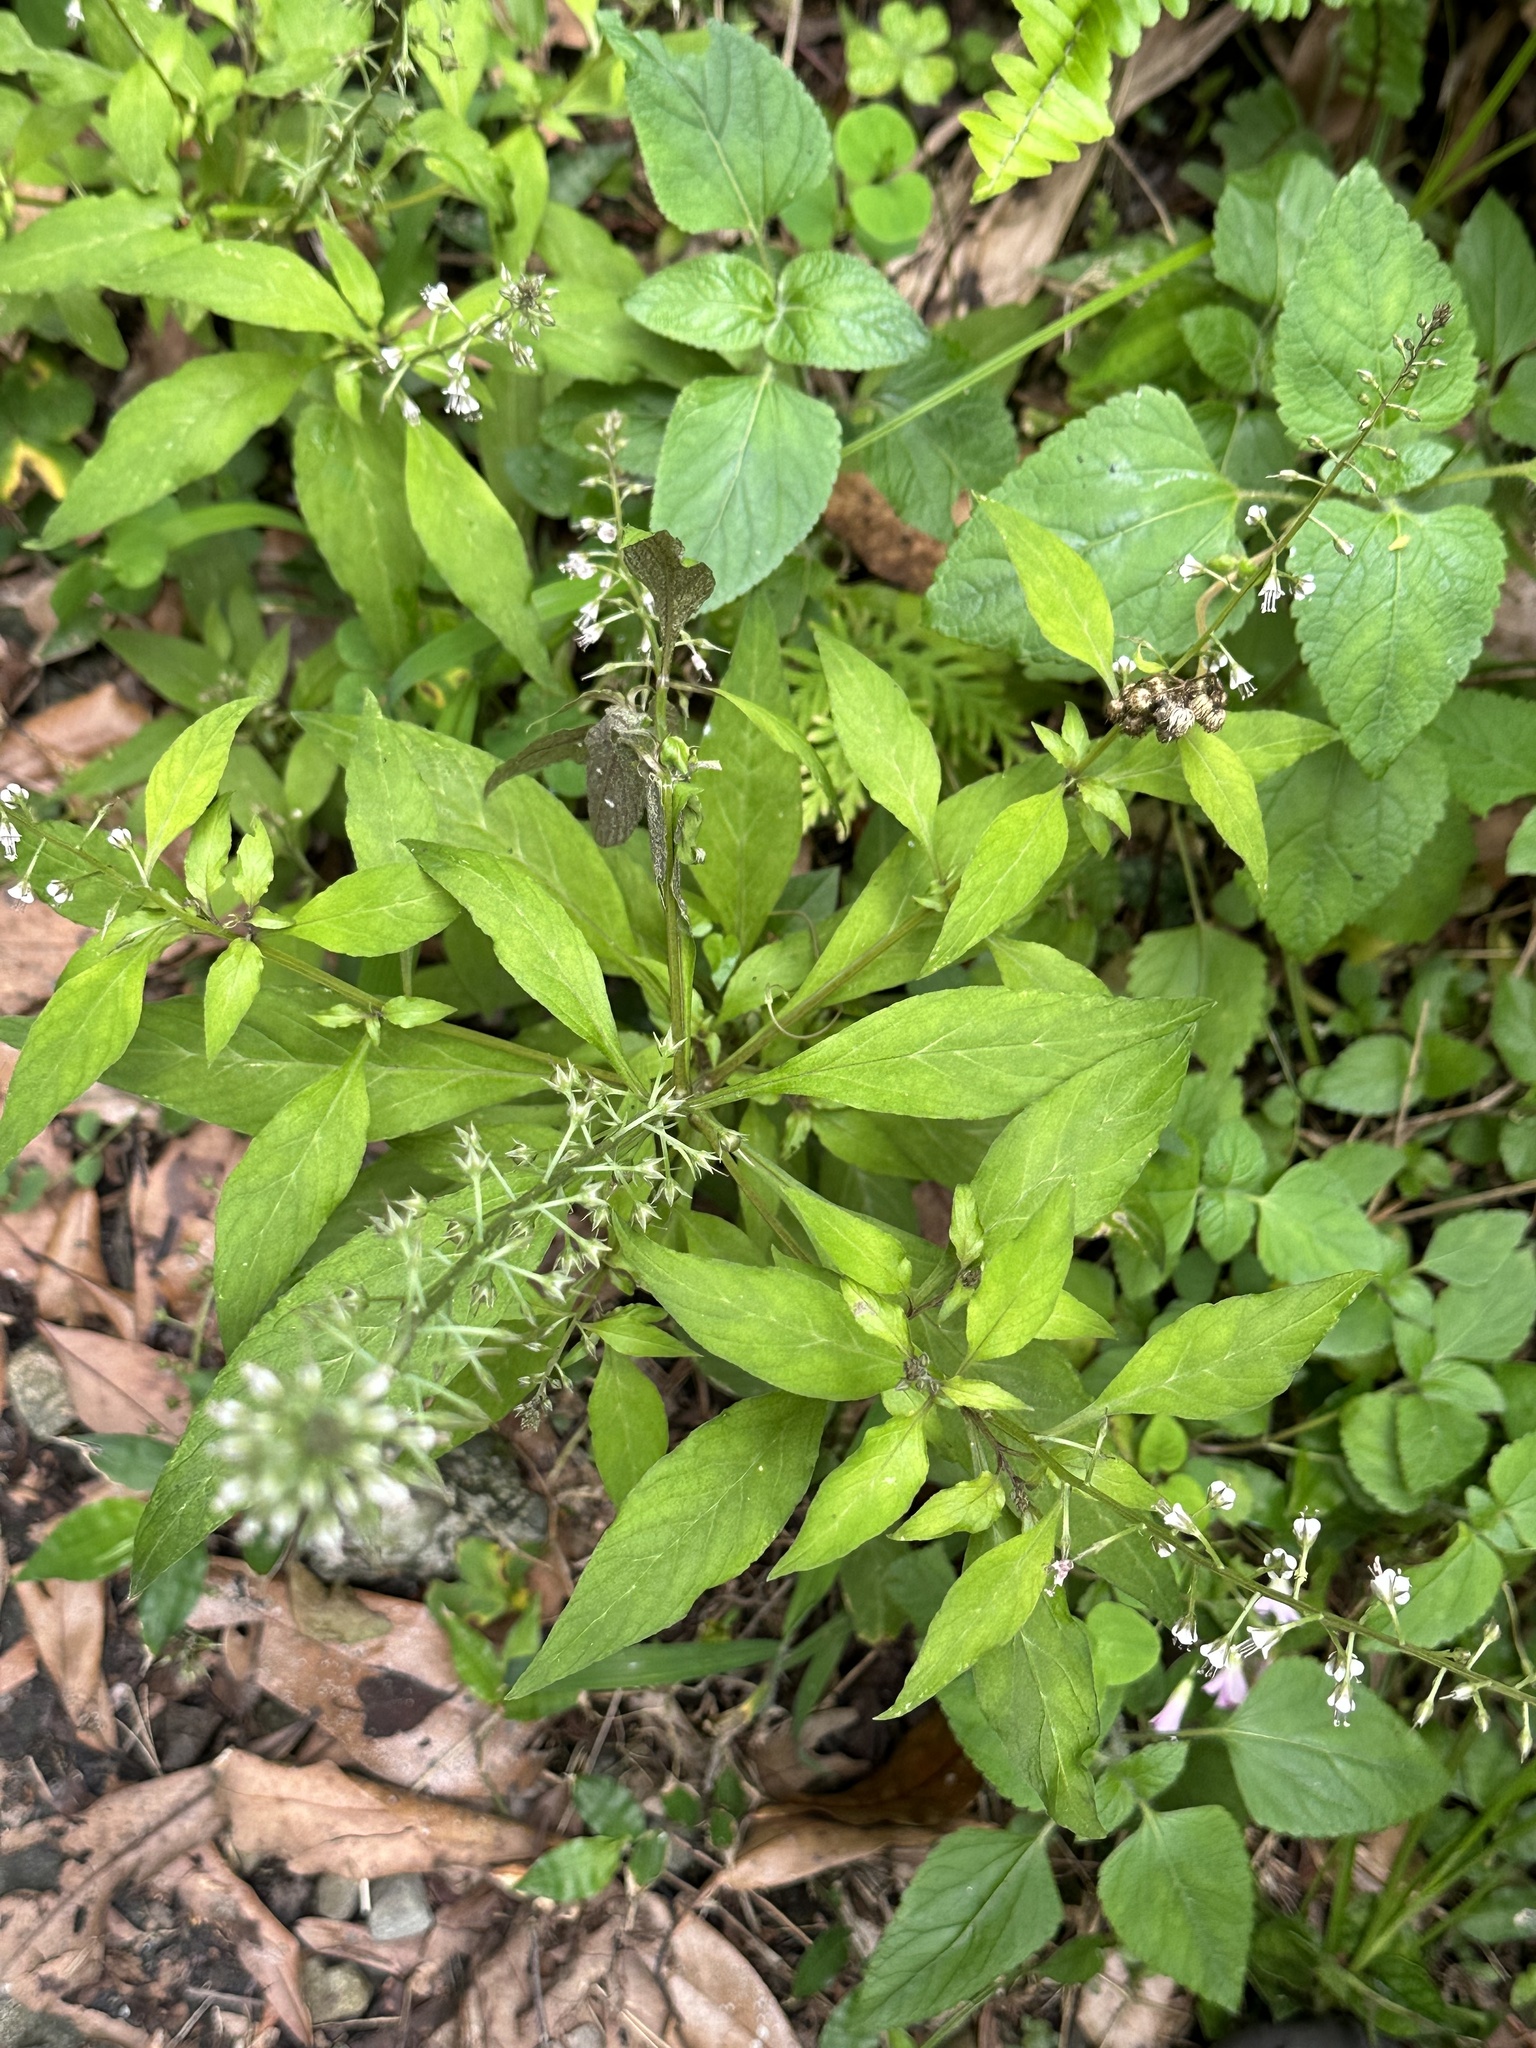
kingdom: Plantae
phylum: Tracheophyta
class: Magnoliopsida
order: Ericales
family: Primulaceae
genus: Lysimachia
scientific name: Lysimachia decurrens
